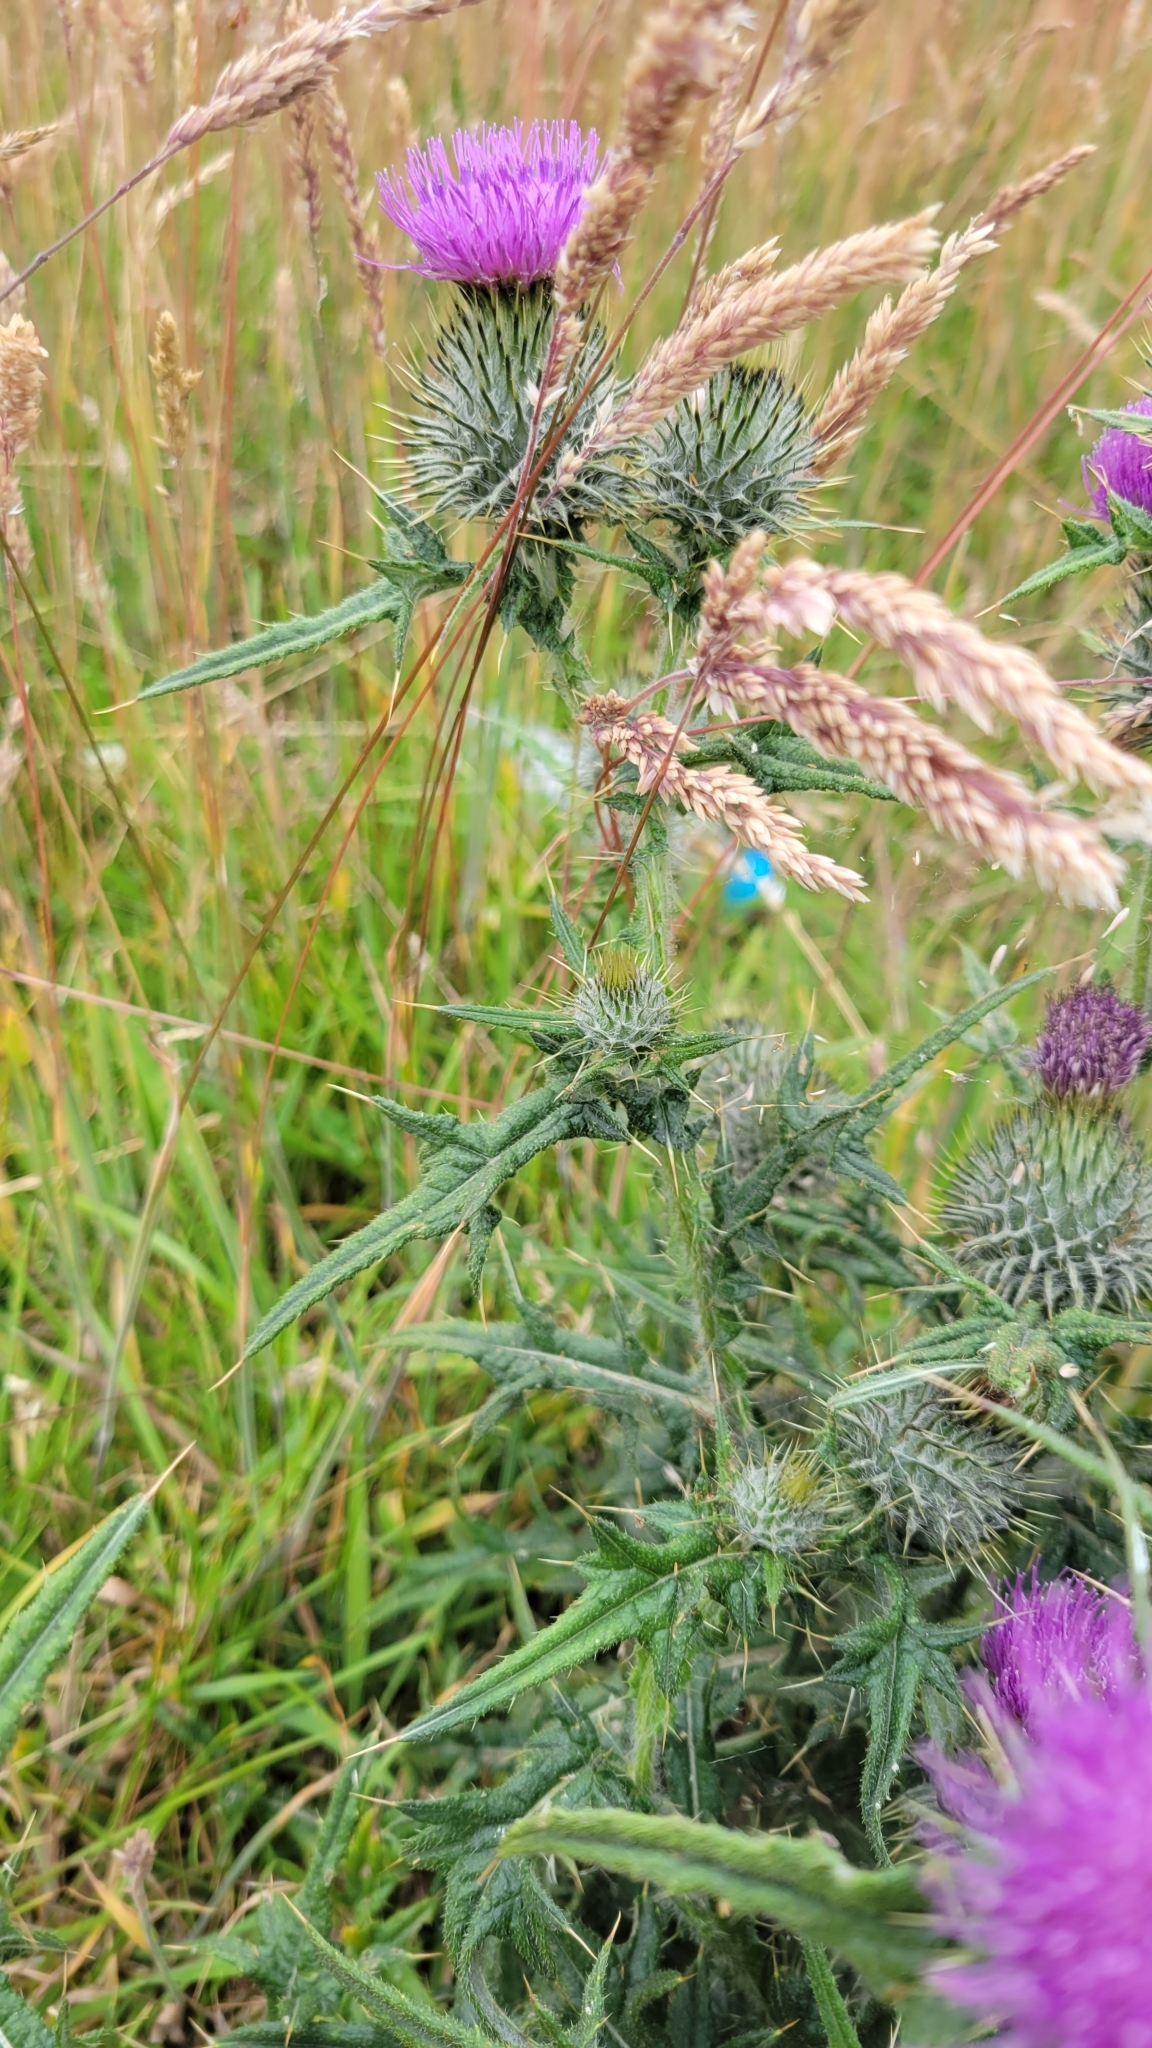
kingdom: Plantae
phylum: Tracheophyta
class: Magnoliopsida
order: Asterales
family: Asteraceae
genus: Cirsium
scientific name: Cirsium vulgare
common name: Bull thistle
